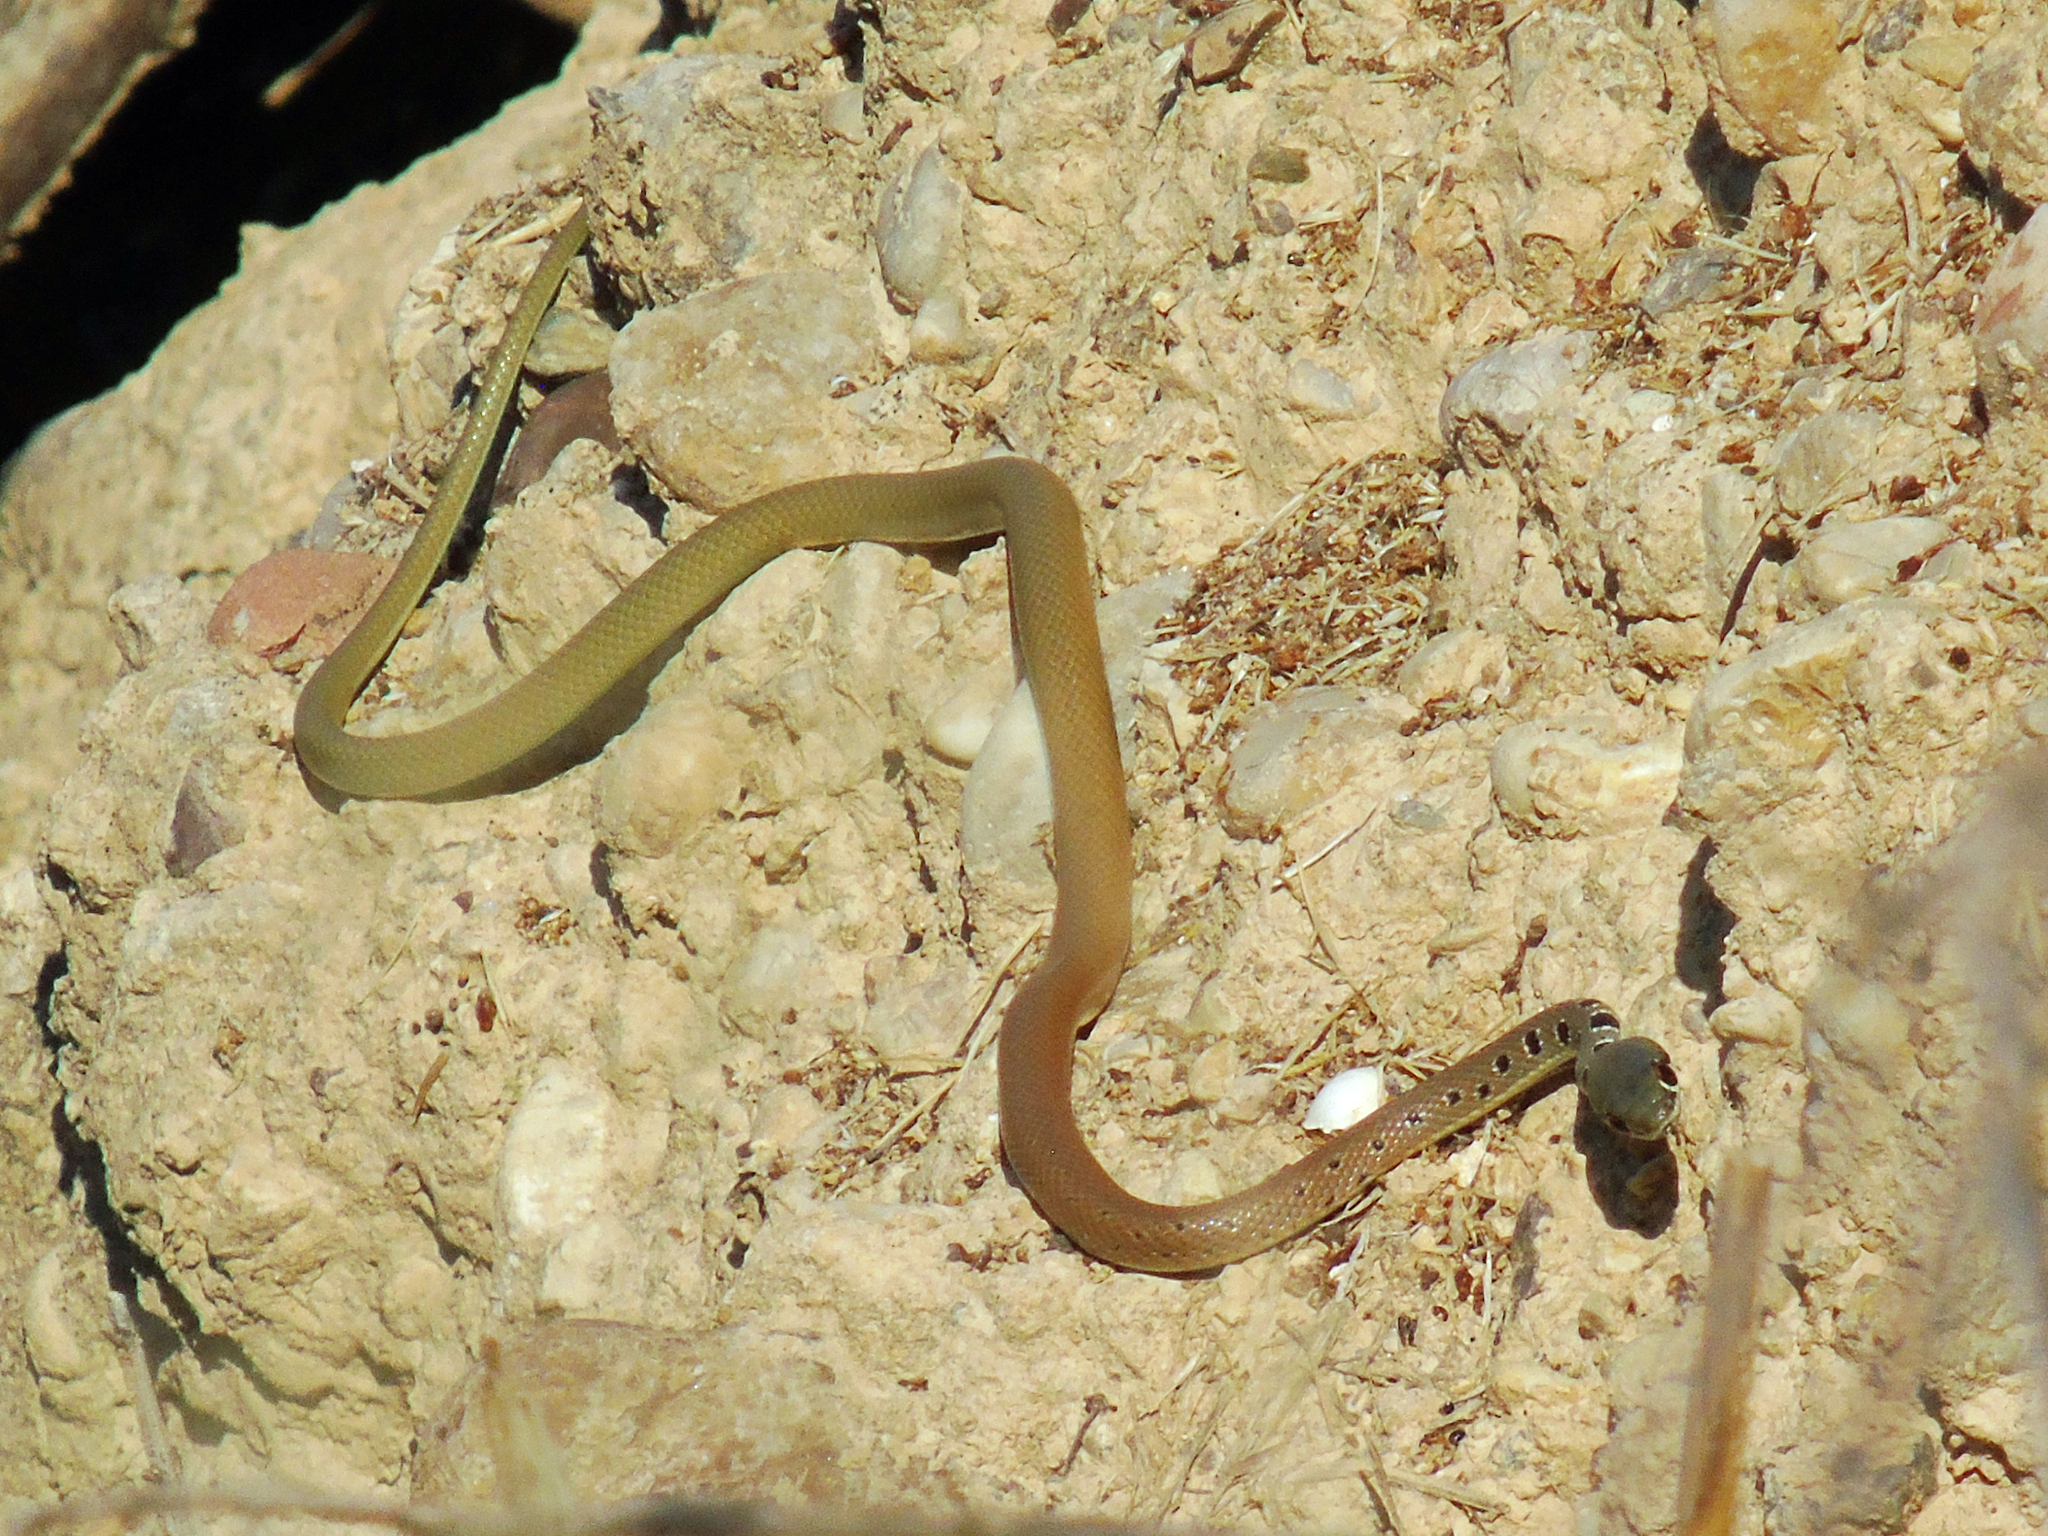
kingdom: Animalia
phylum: Chordata
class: Squamata
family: Colubridae
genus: Platyceps
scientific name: Platyceps najadum
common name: Dahl's whip snake
